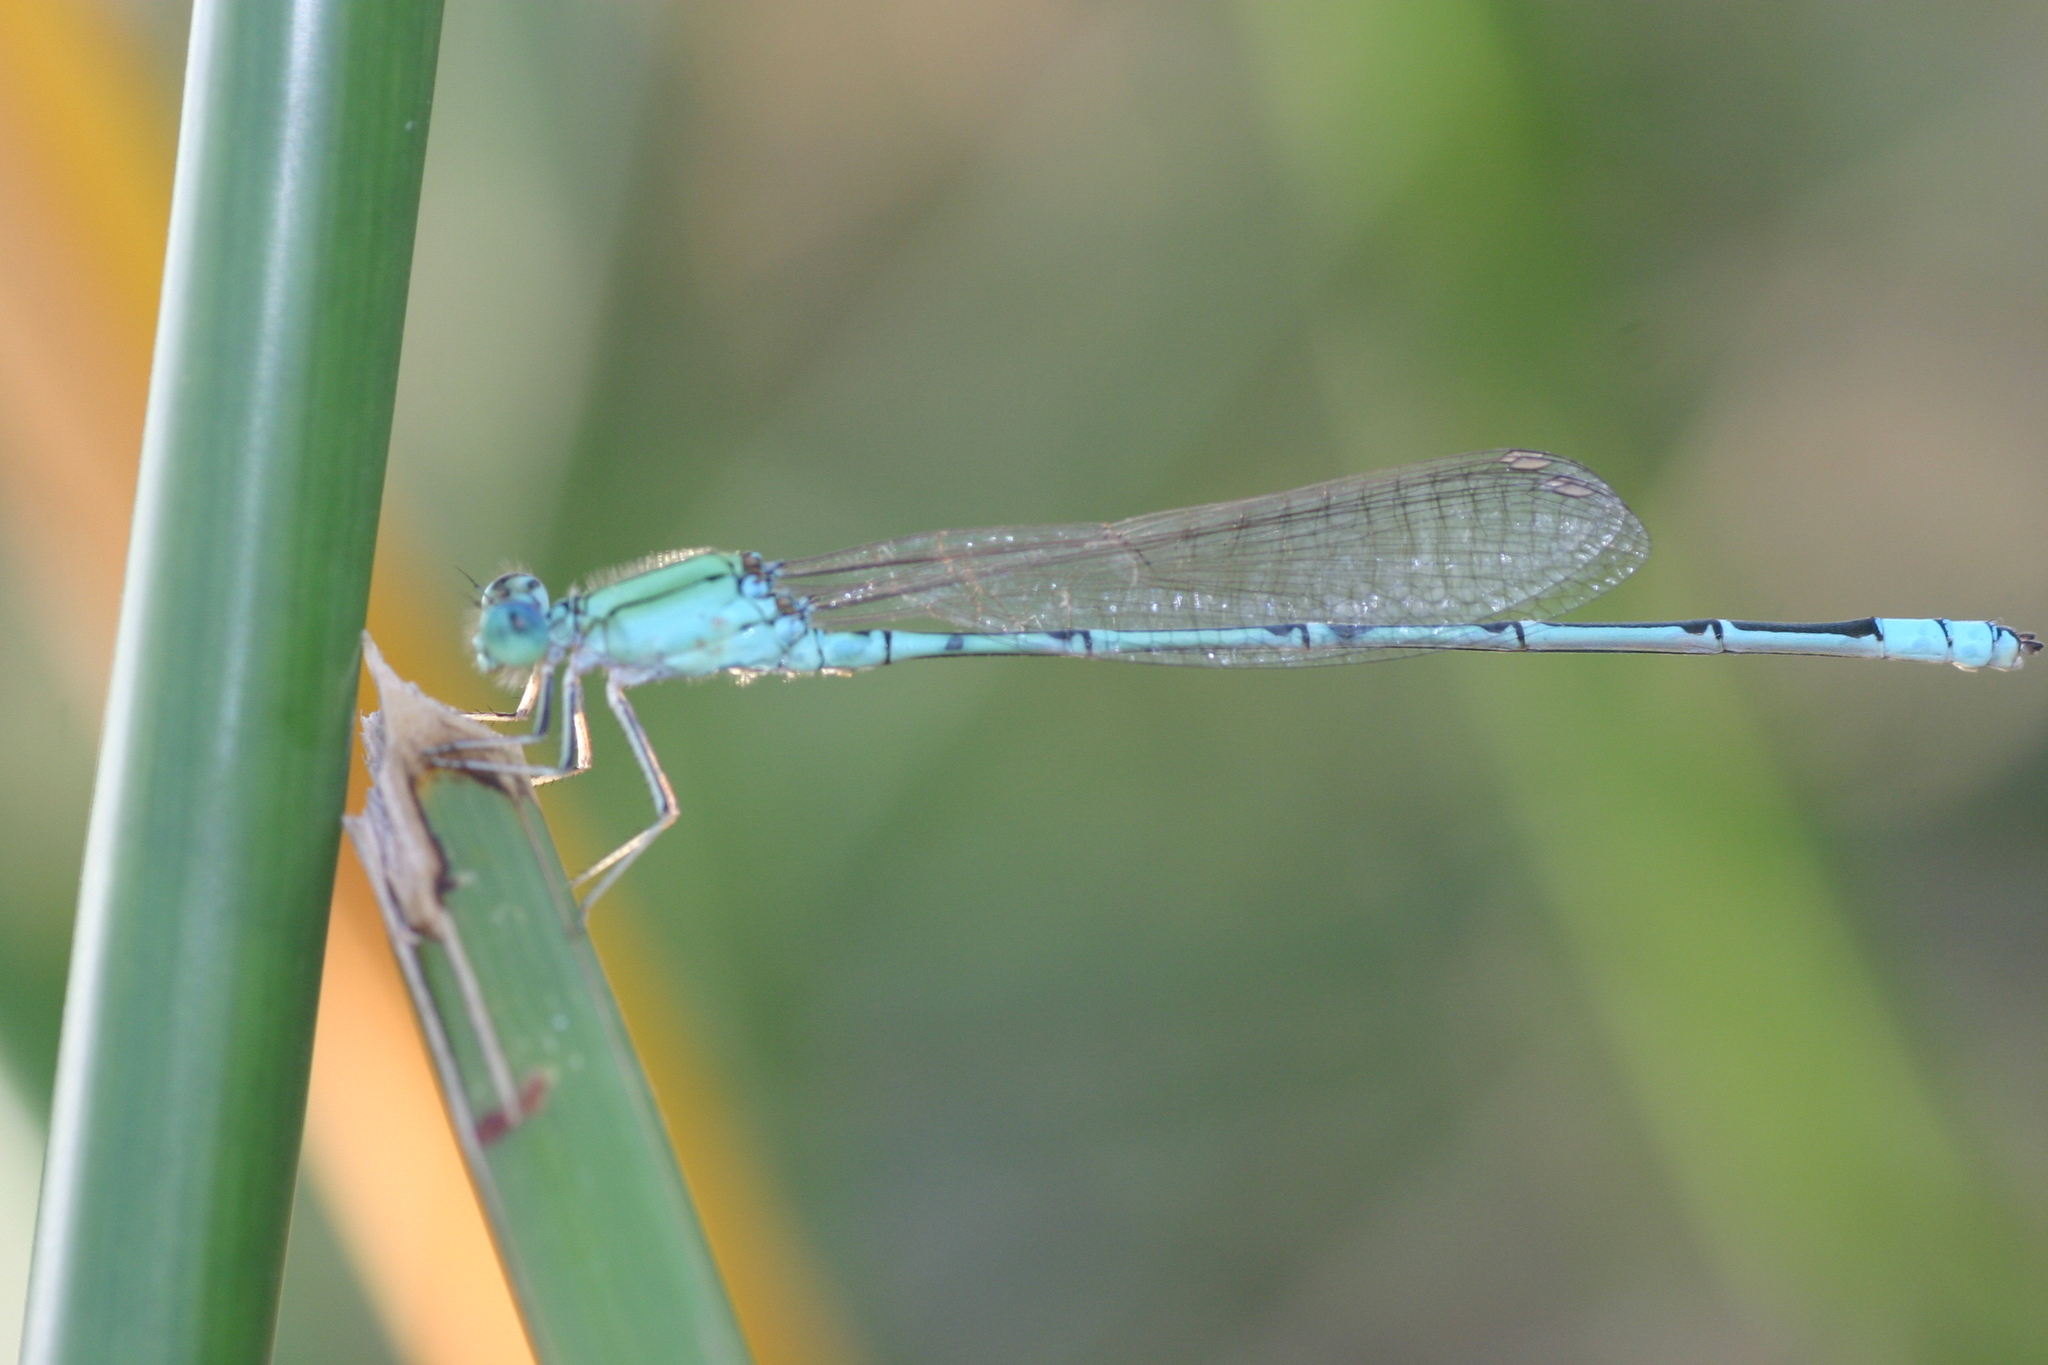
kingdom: Animalia
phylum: Arthropoda
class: Insecta
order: Odonata
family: Coenagrionidae
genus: Pseudagrion
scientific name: Pseudagrion decorum
